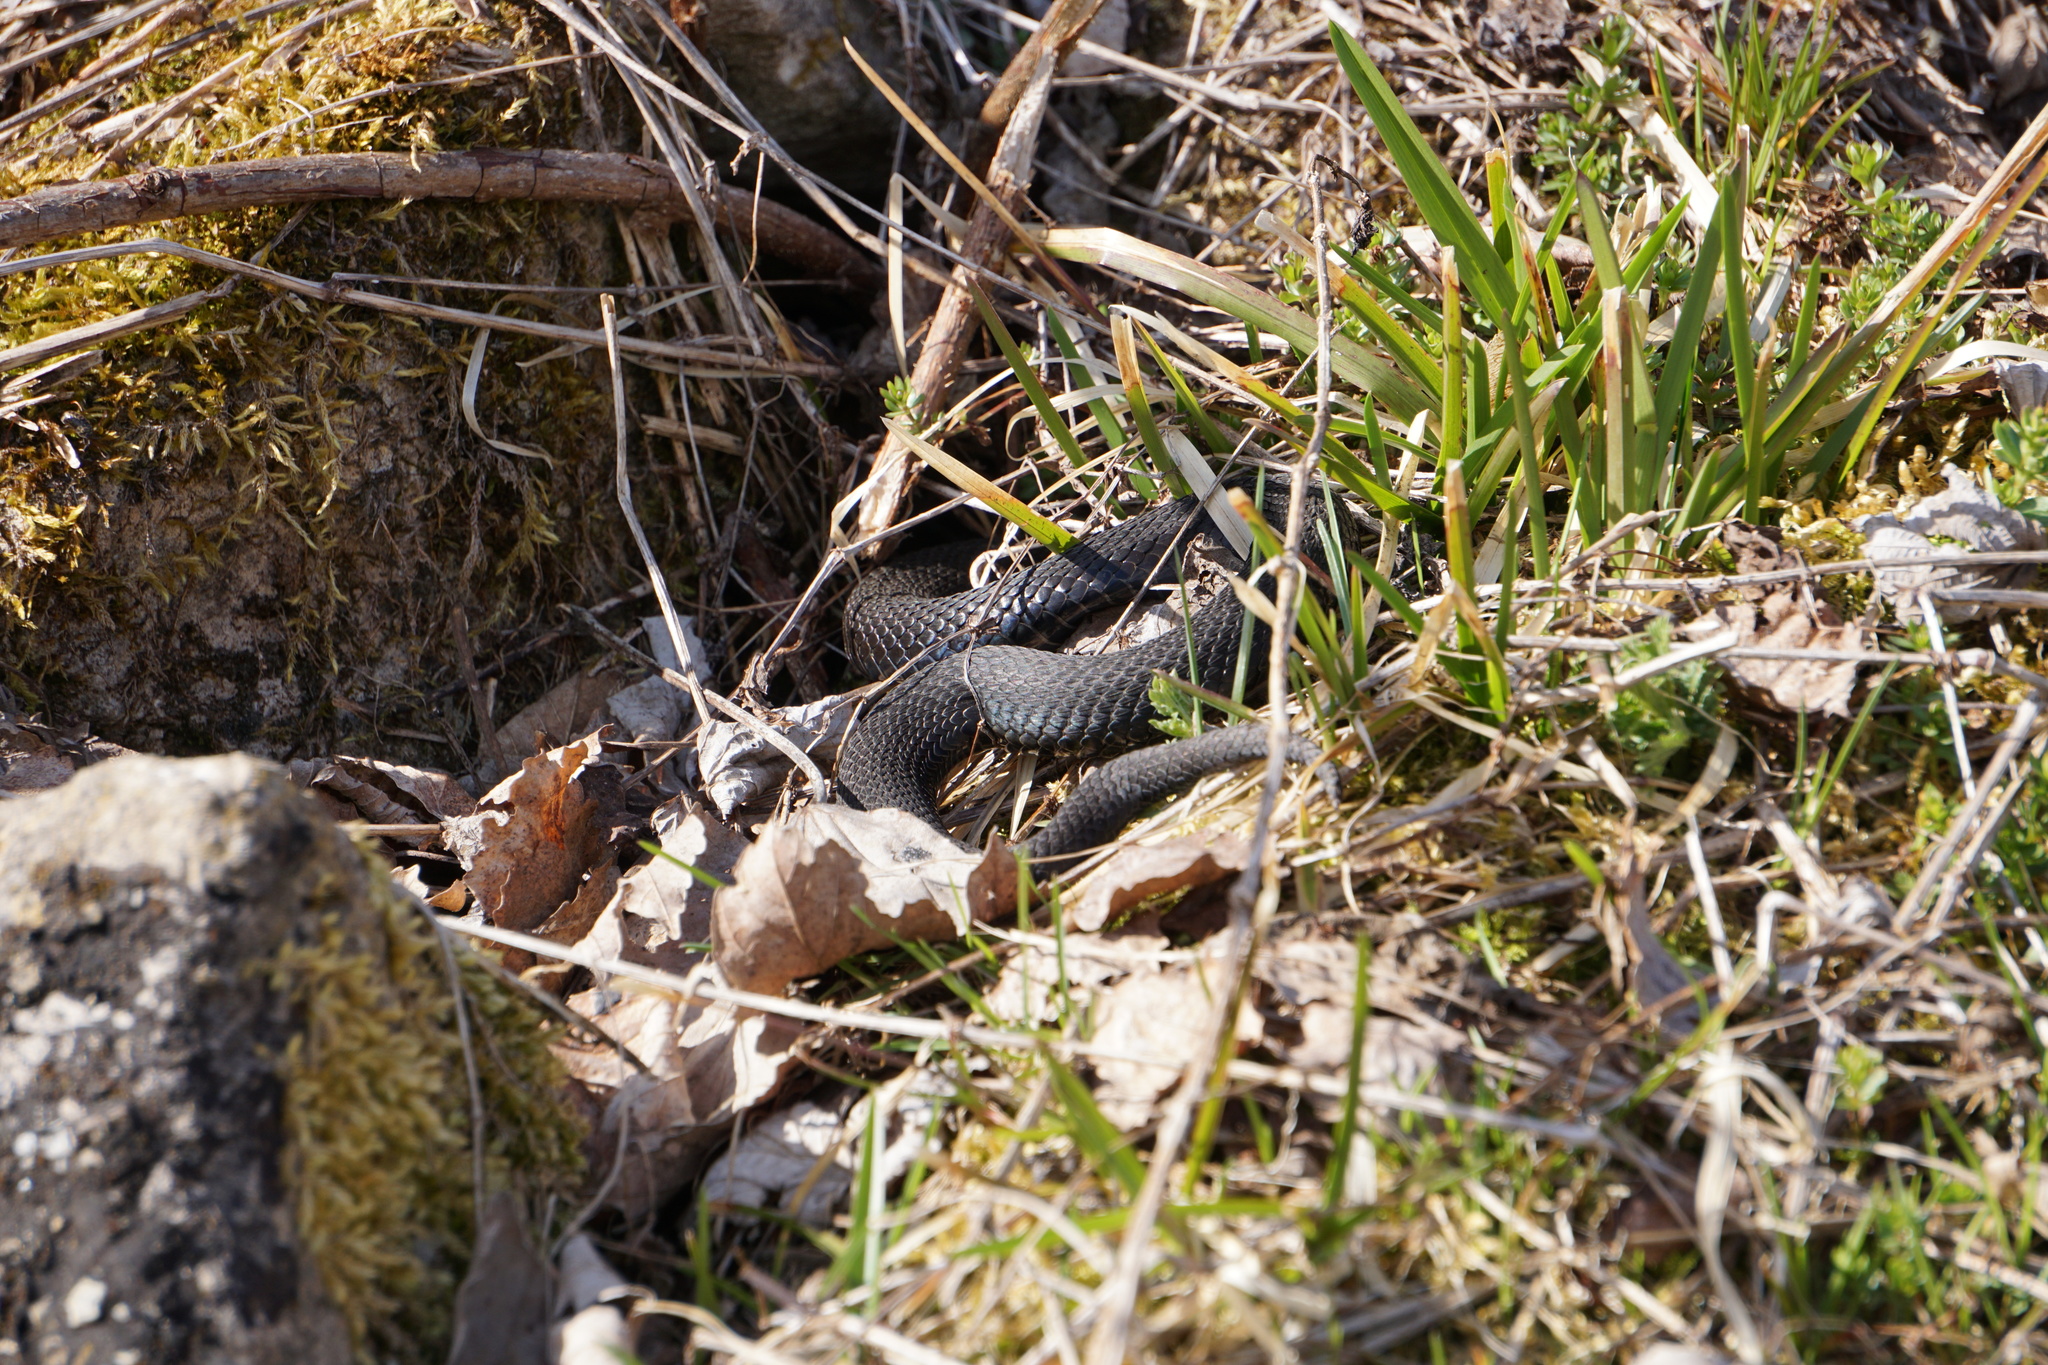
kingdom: Animalia
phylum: Chordata
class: Squamata
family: Viperidae
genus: Vipera
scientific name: Vipera berus
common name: Adder
